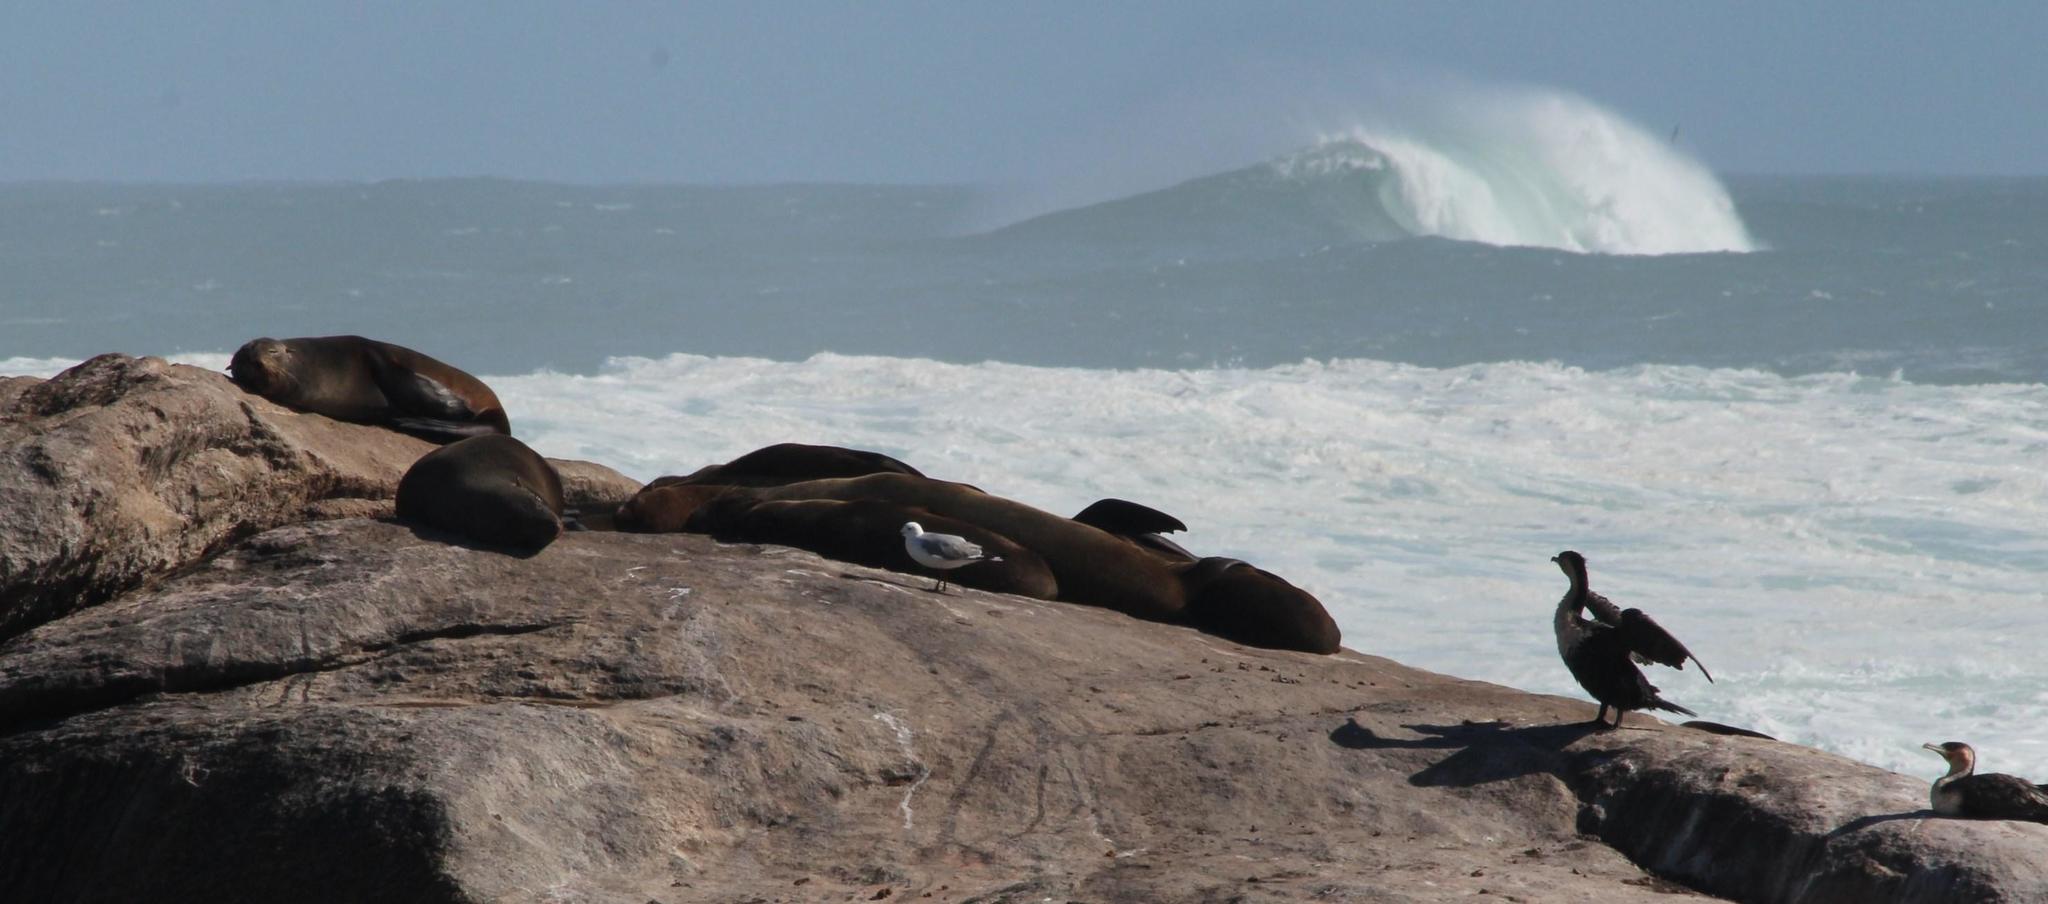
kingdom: Animalia
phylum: Chordata
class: Mammalia
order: Carnivora
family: Otariidae
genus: Arctocephalus
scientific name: Arctocephalus pusillus
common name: Brown fur seal
